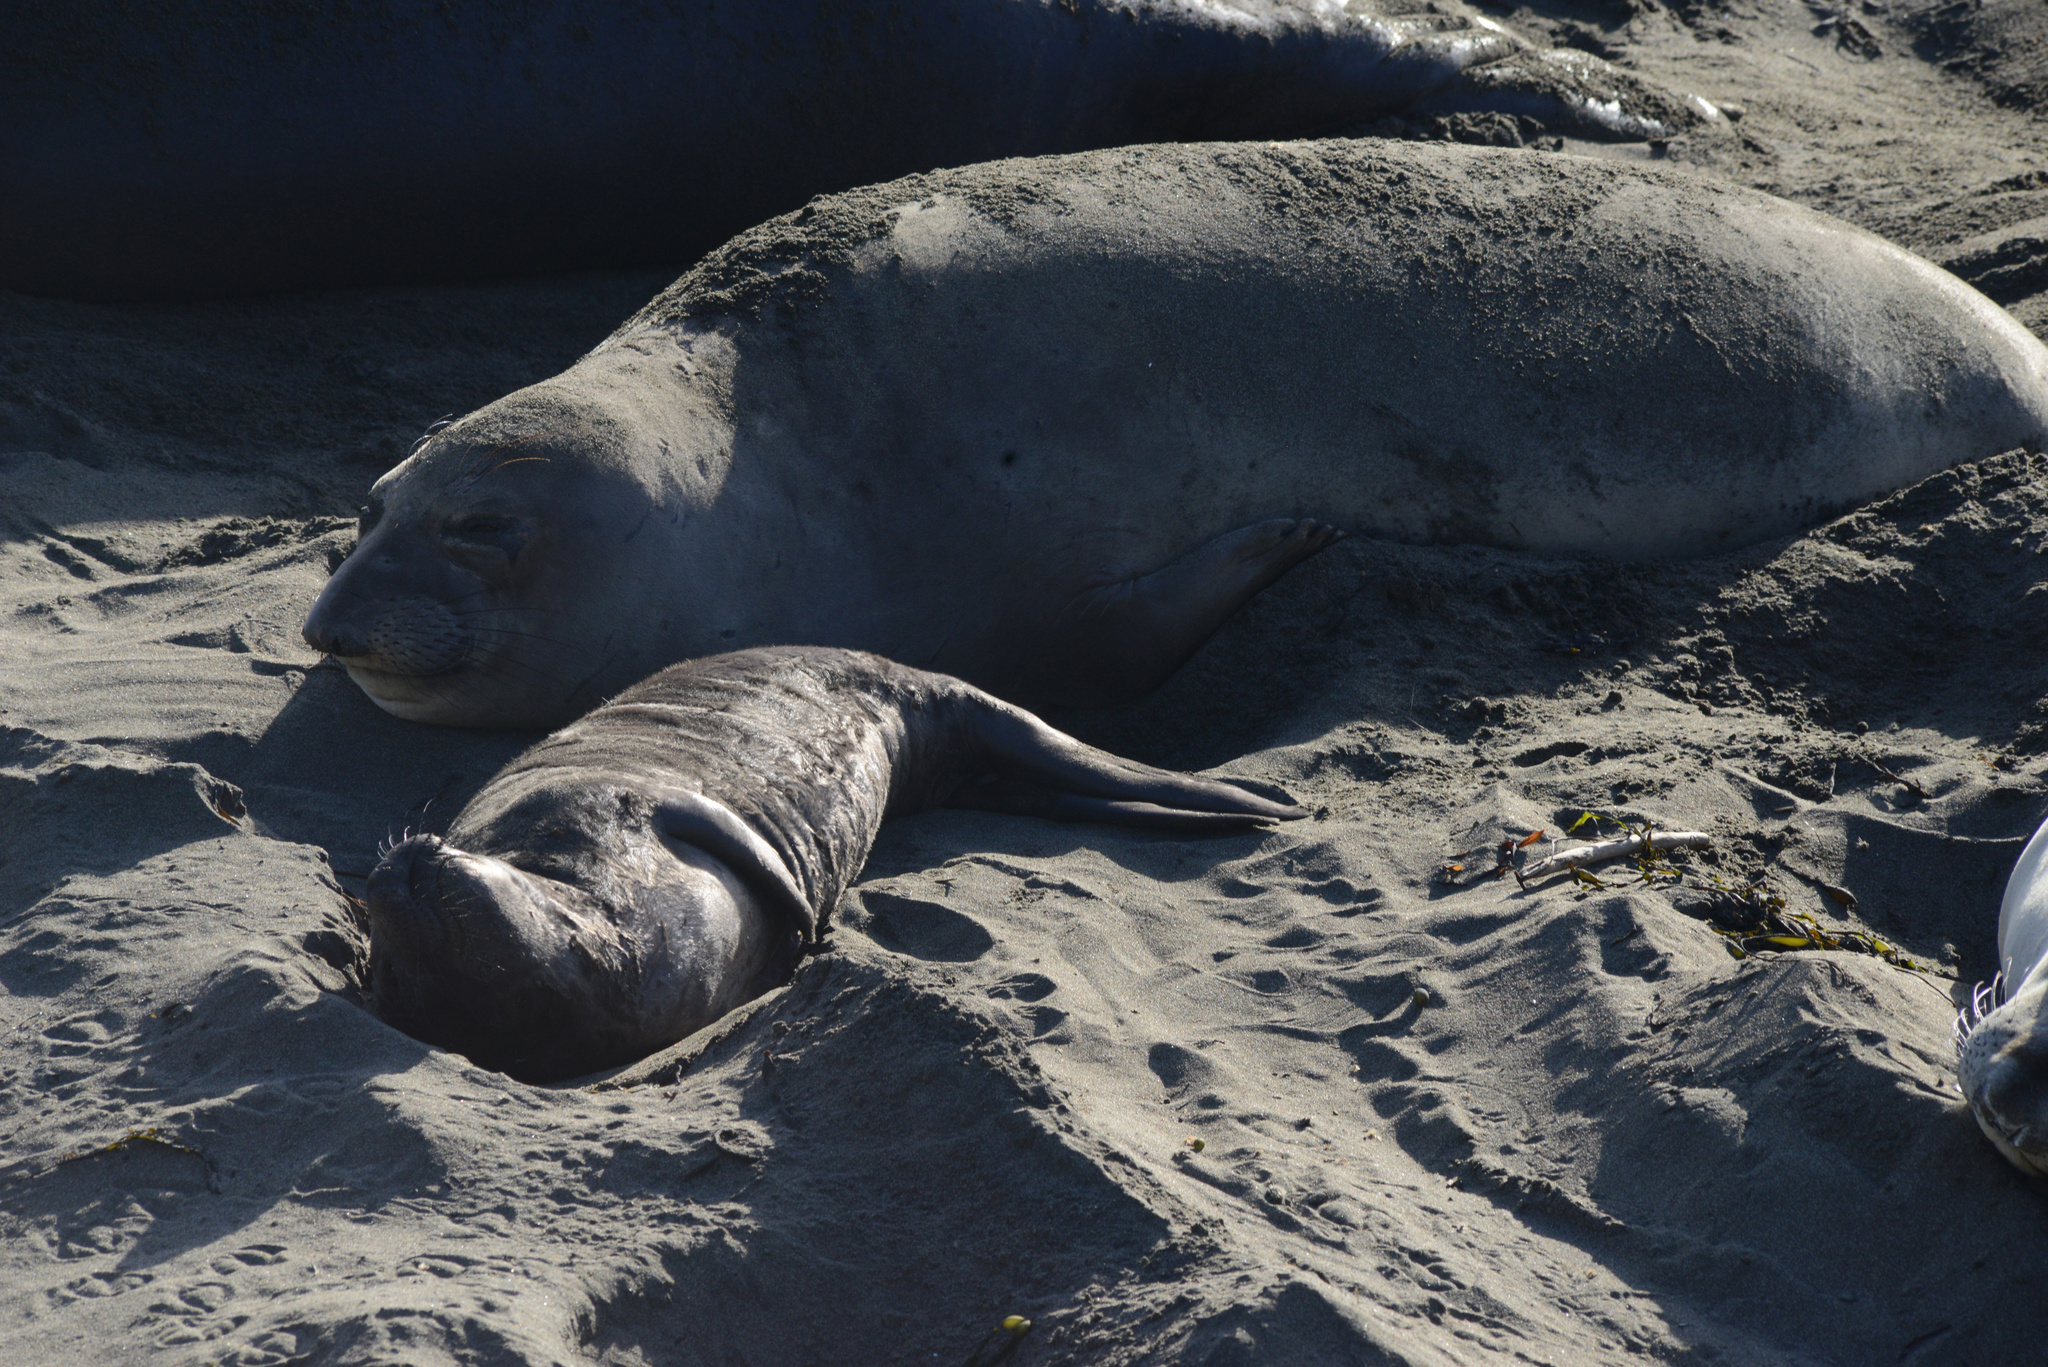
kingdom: Animalia
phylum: Chordata
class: Mammalia
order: Carnivora
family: Phocidae
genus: Mirounga
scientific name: Mirounga angustirostris
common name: Northern elephant seal
